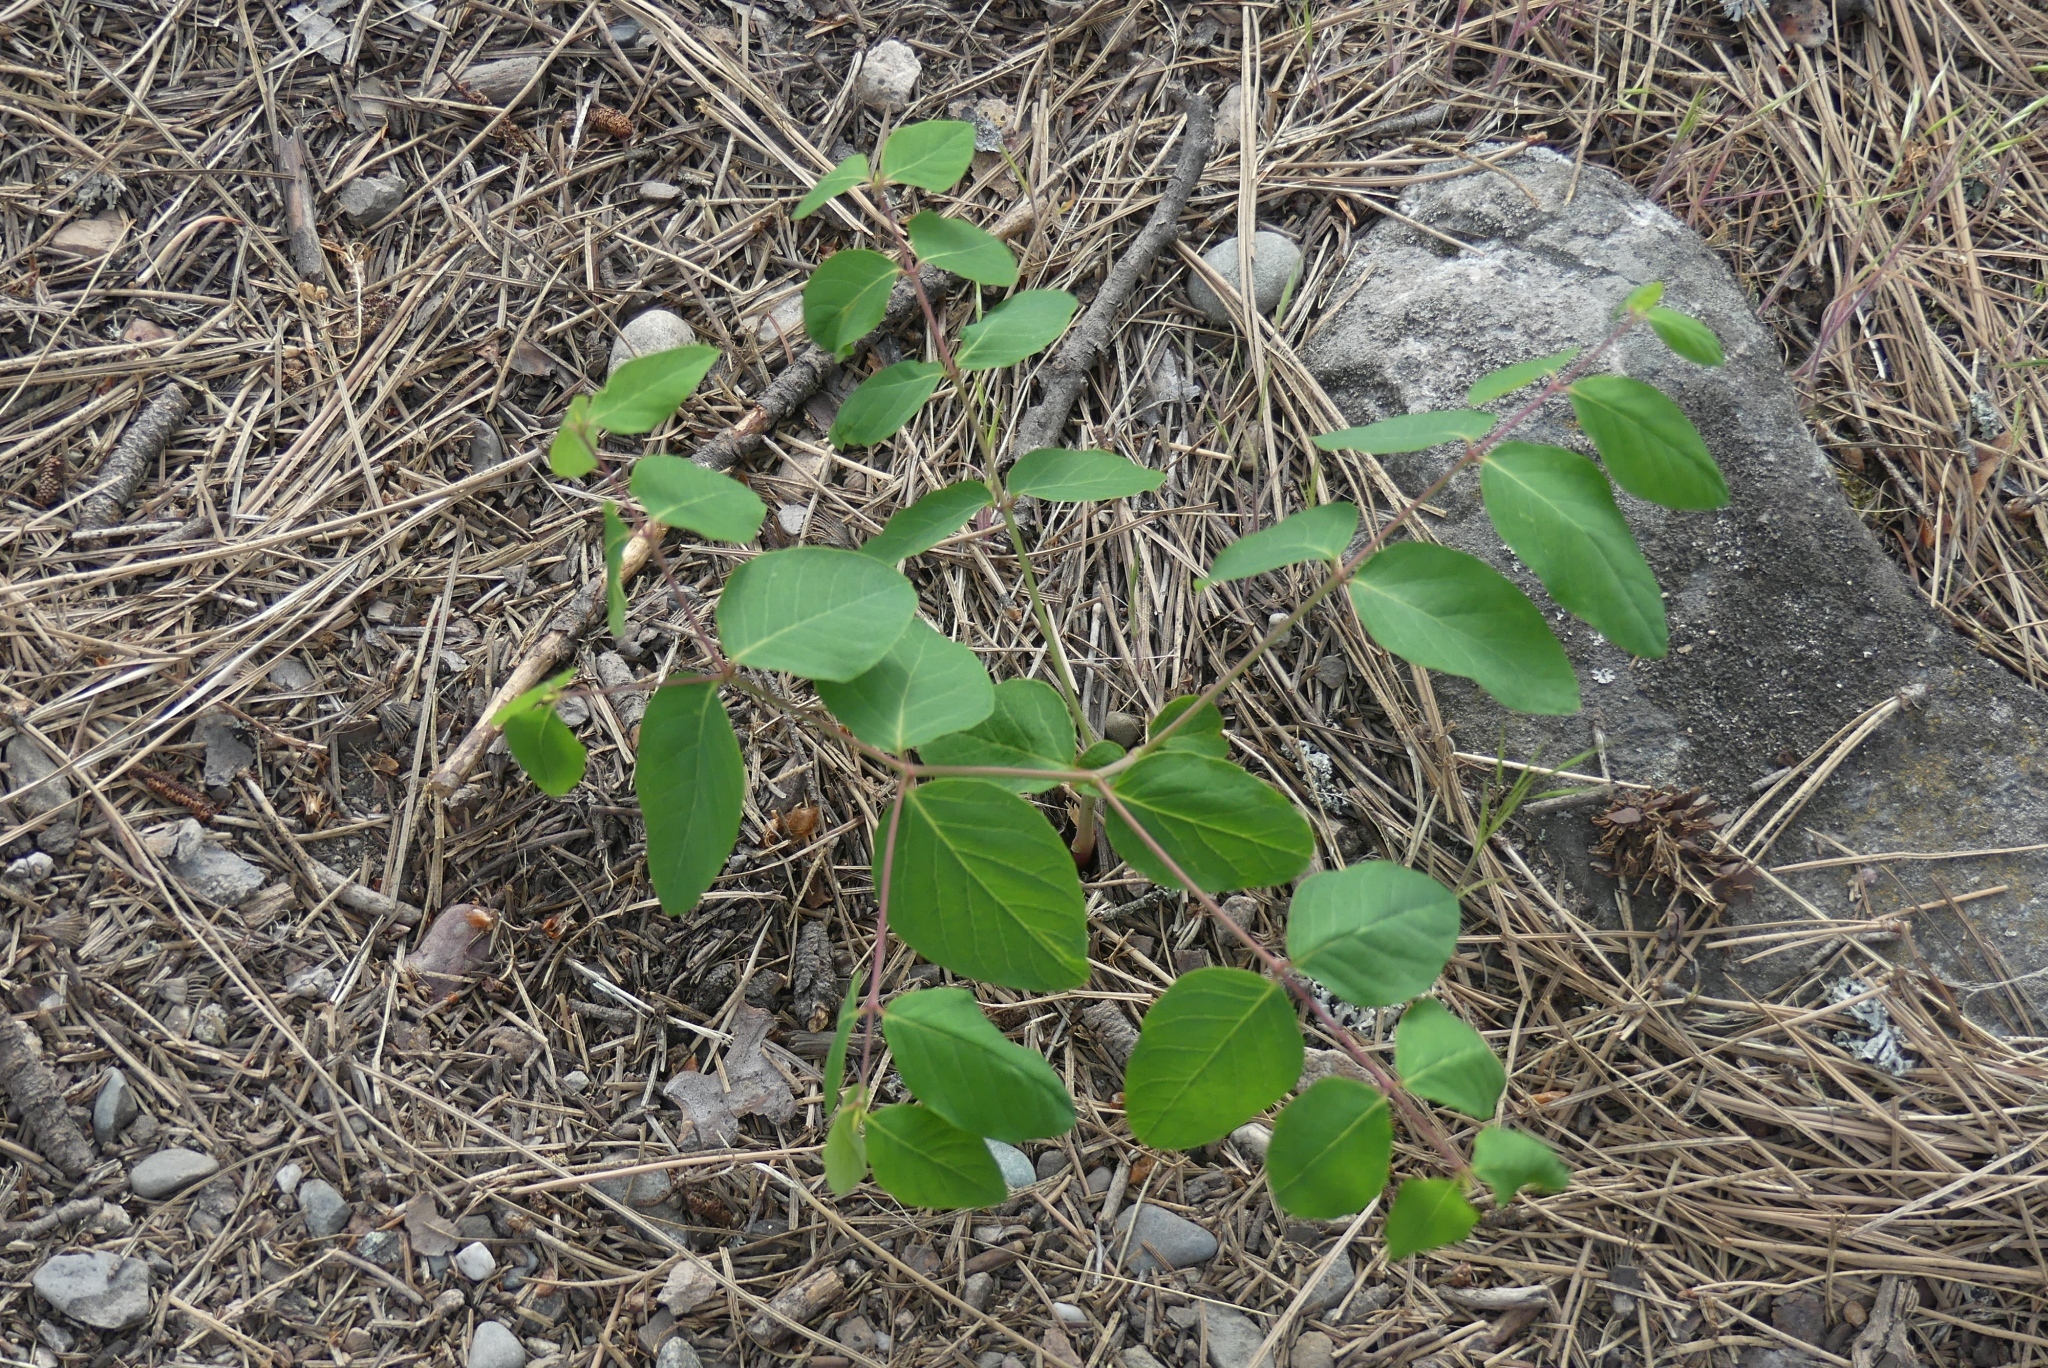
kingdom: Plantae
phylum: Tracheophyta
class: Magnoliopsida
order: Gentianales
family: Apocynaceae
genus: Apocynum
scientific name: Apocynum androsaemifolium
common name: Spreading dogbane
